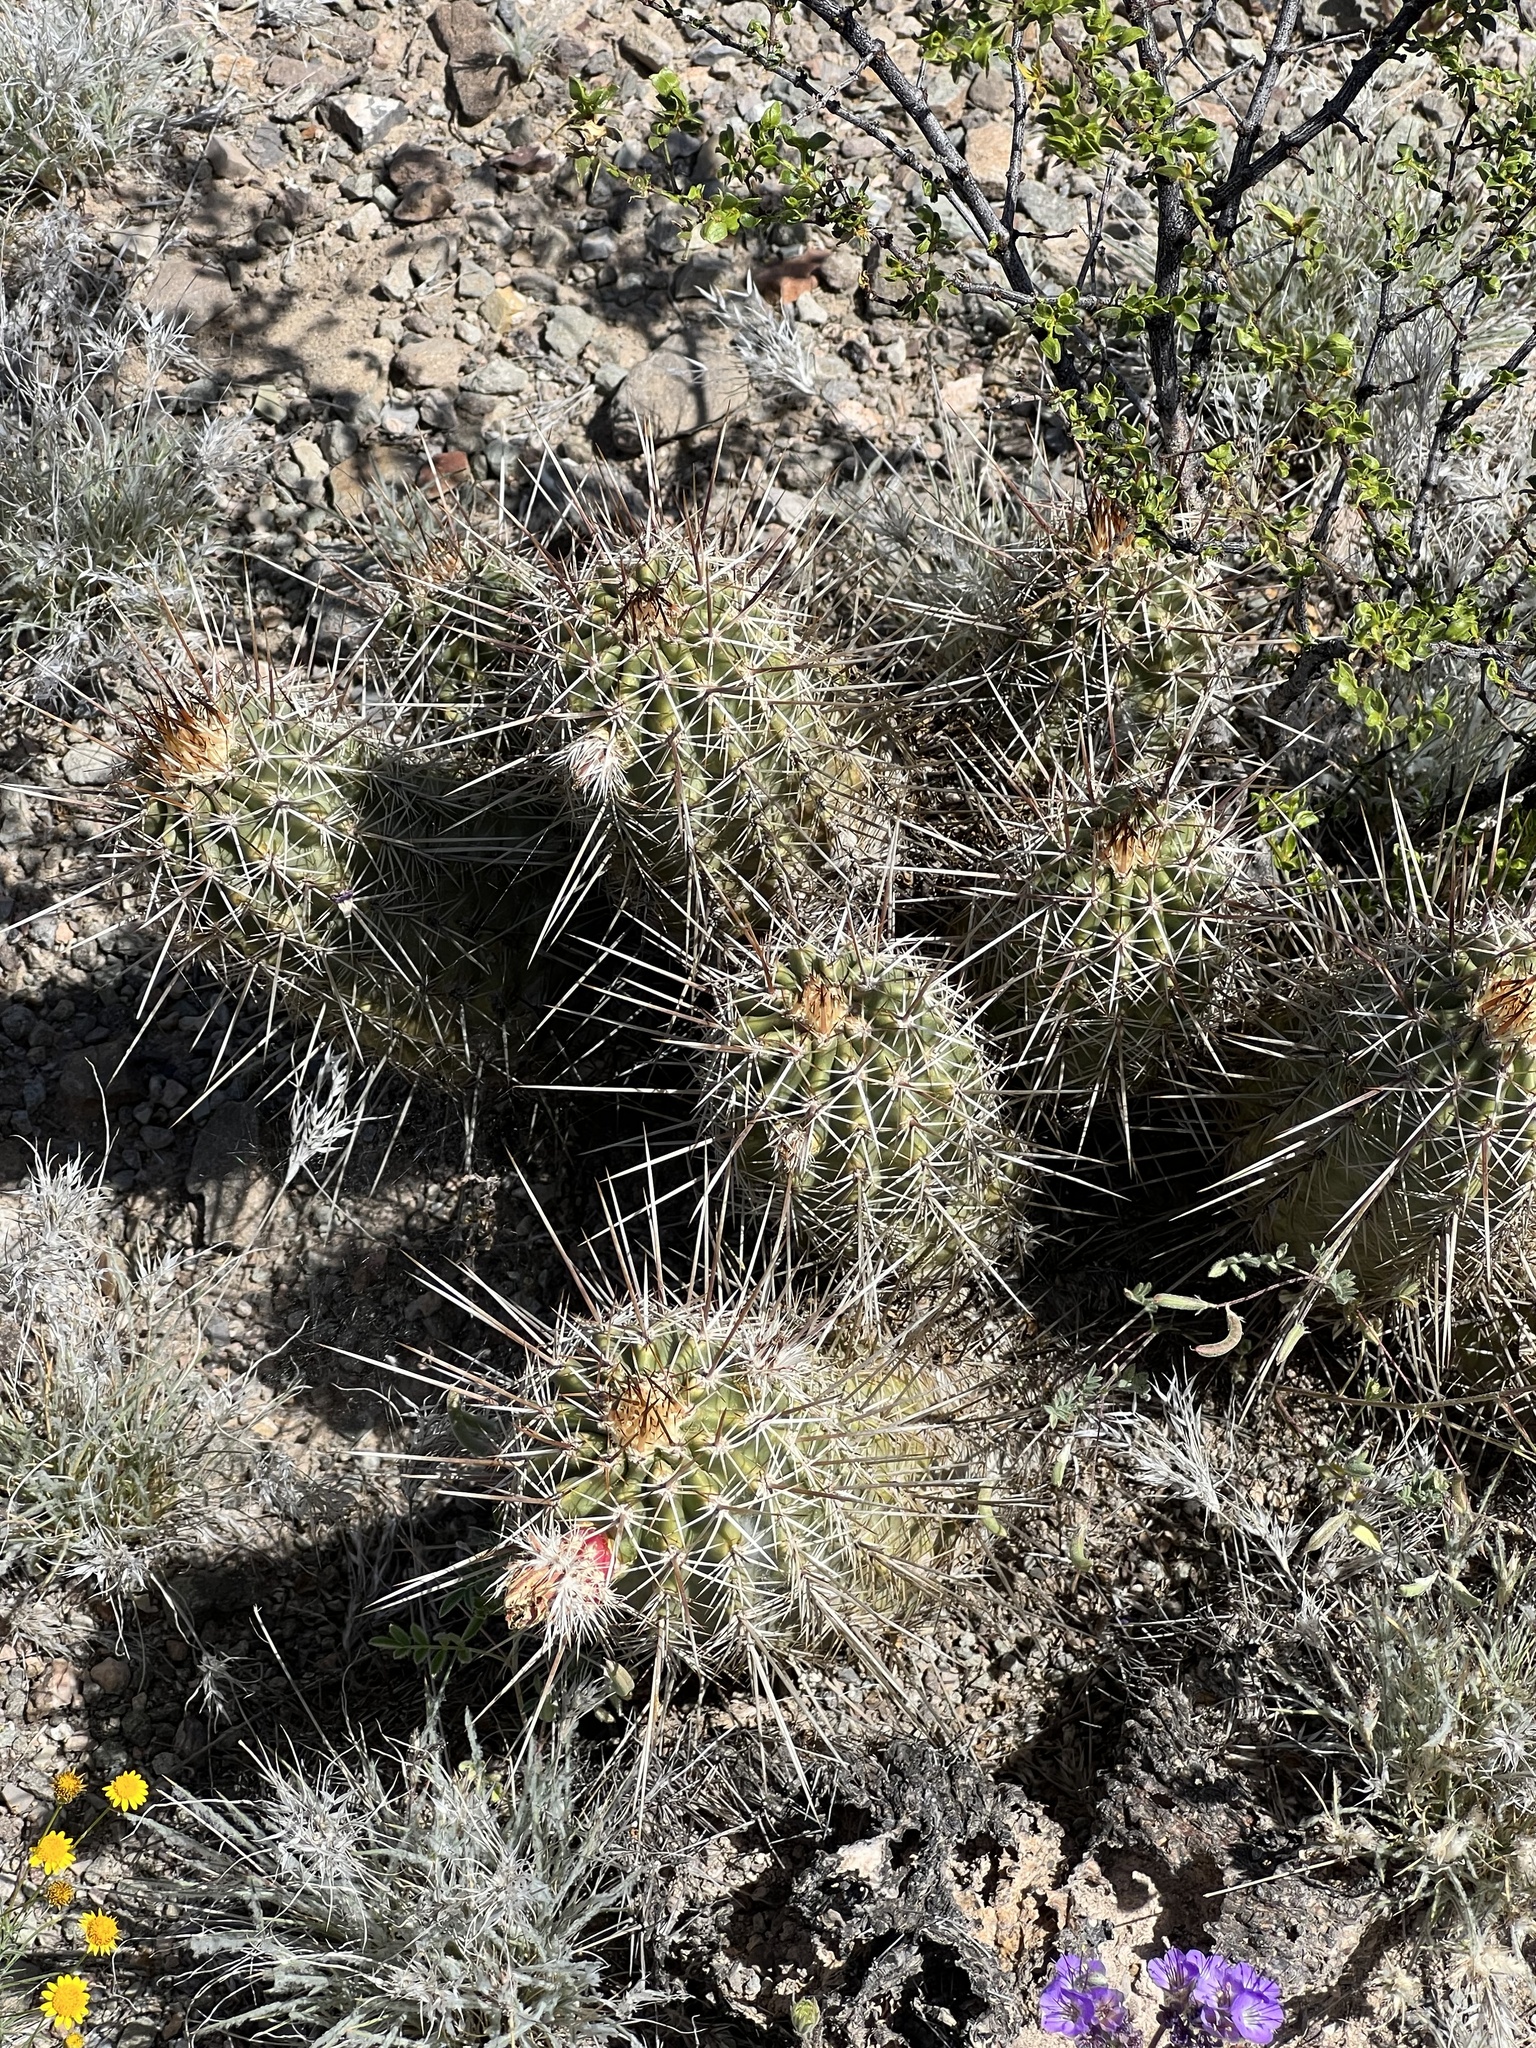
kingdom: Plantae
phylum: Tracheophyta
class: Magnoliopsida
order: Caryophyllales
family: Cactaceae
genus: Echinocereus
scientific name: Echinocereus fasciculatus
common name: Bundle hedgehog
